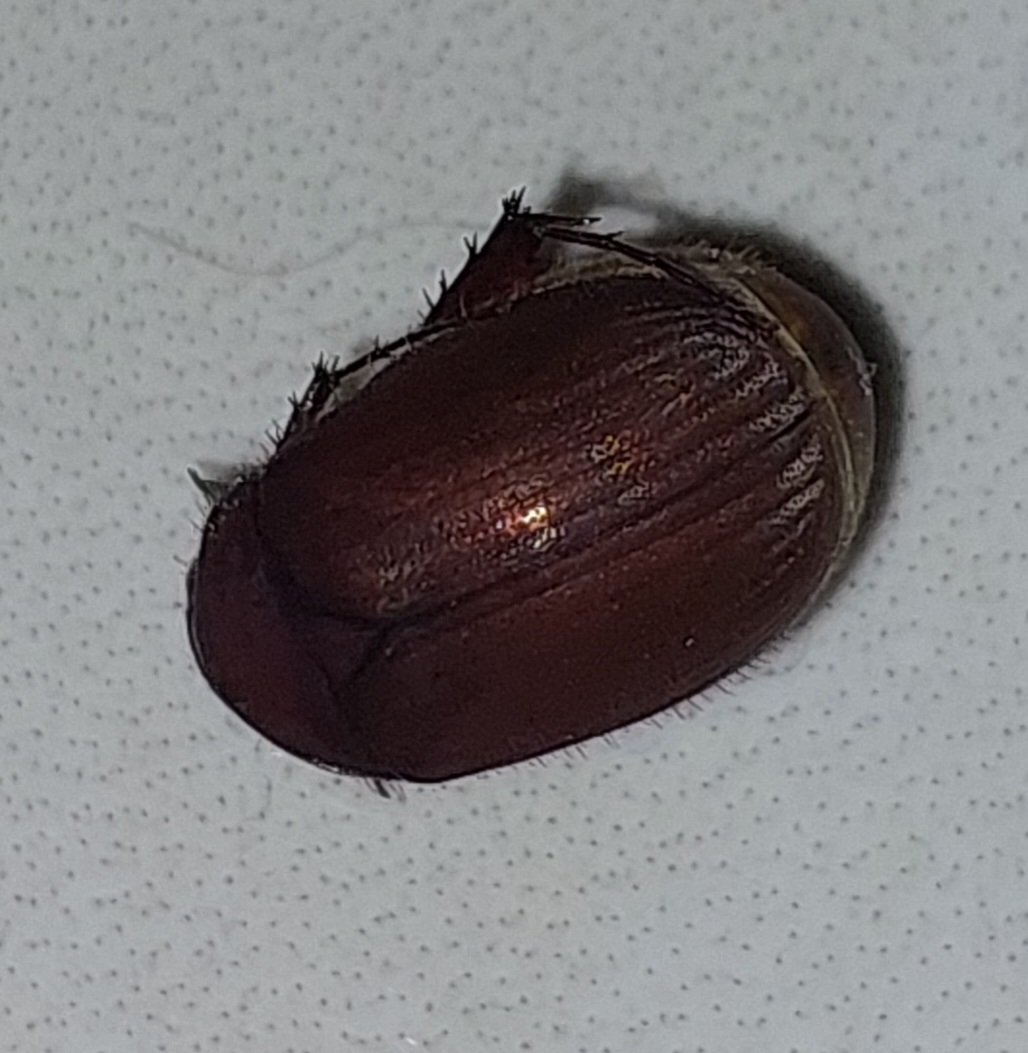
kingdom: Animalia
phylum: Arthropoda
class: Insecta
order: Coleoptera
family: Scarabaeidae
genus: Maladera
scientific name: Maladera insanabilis
